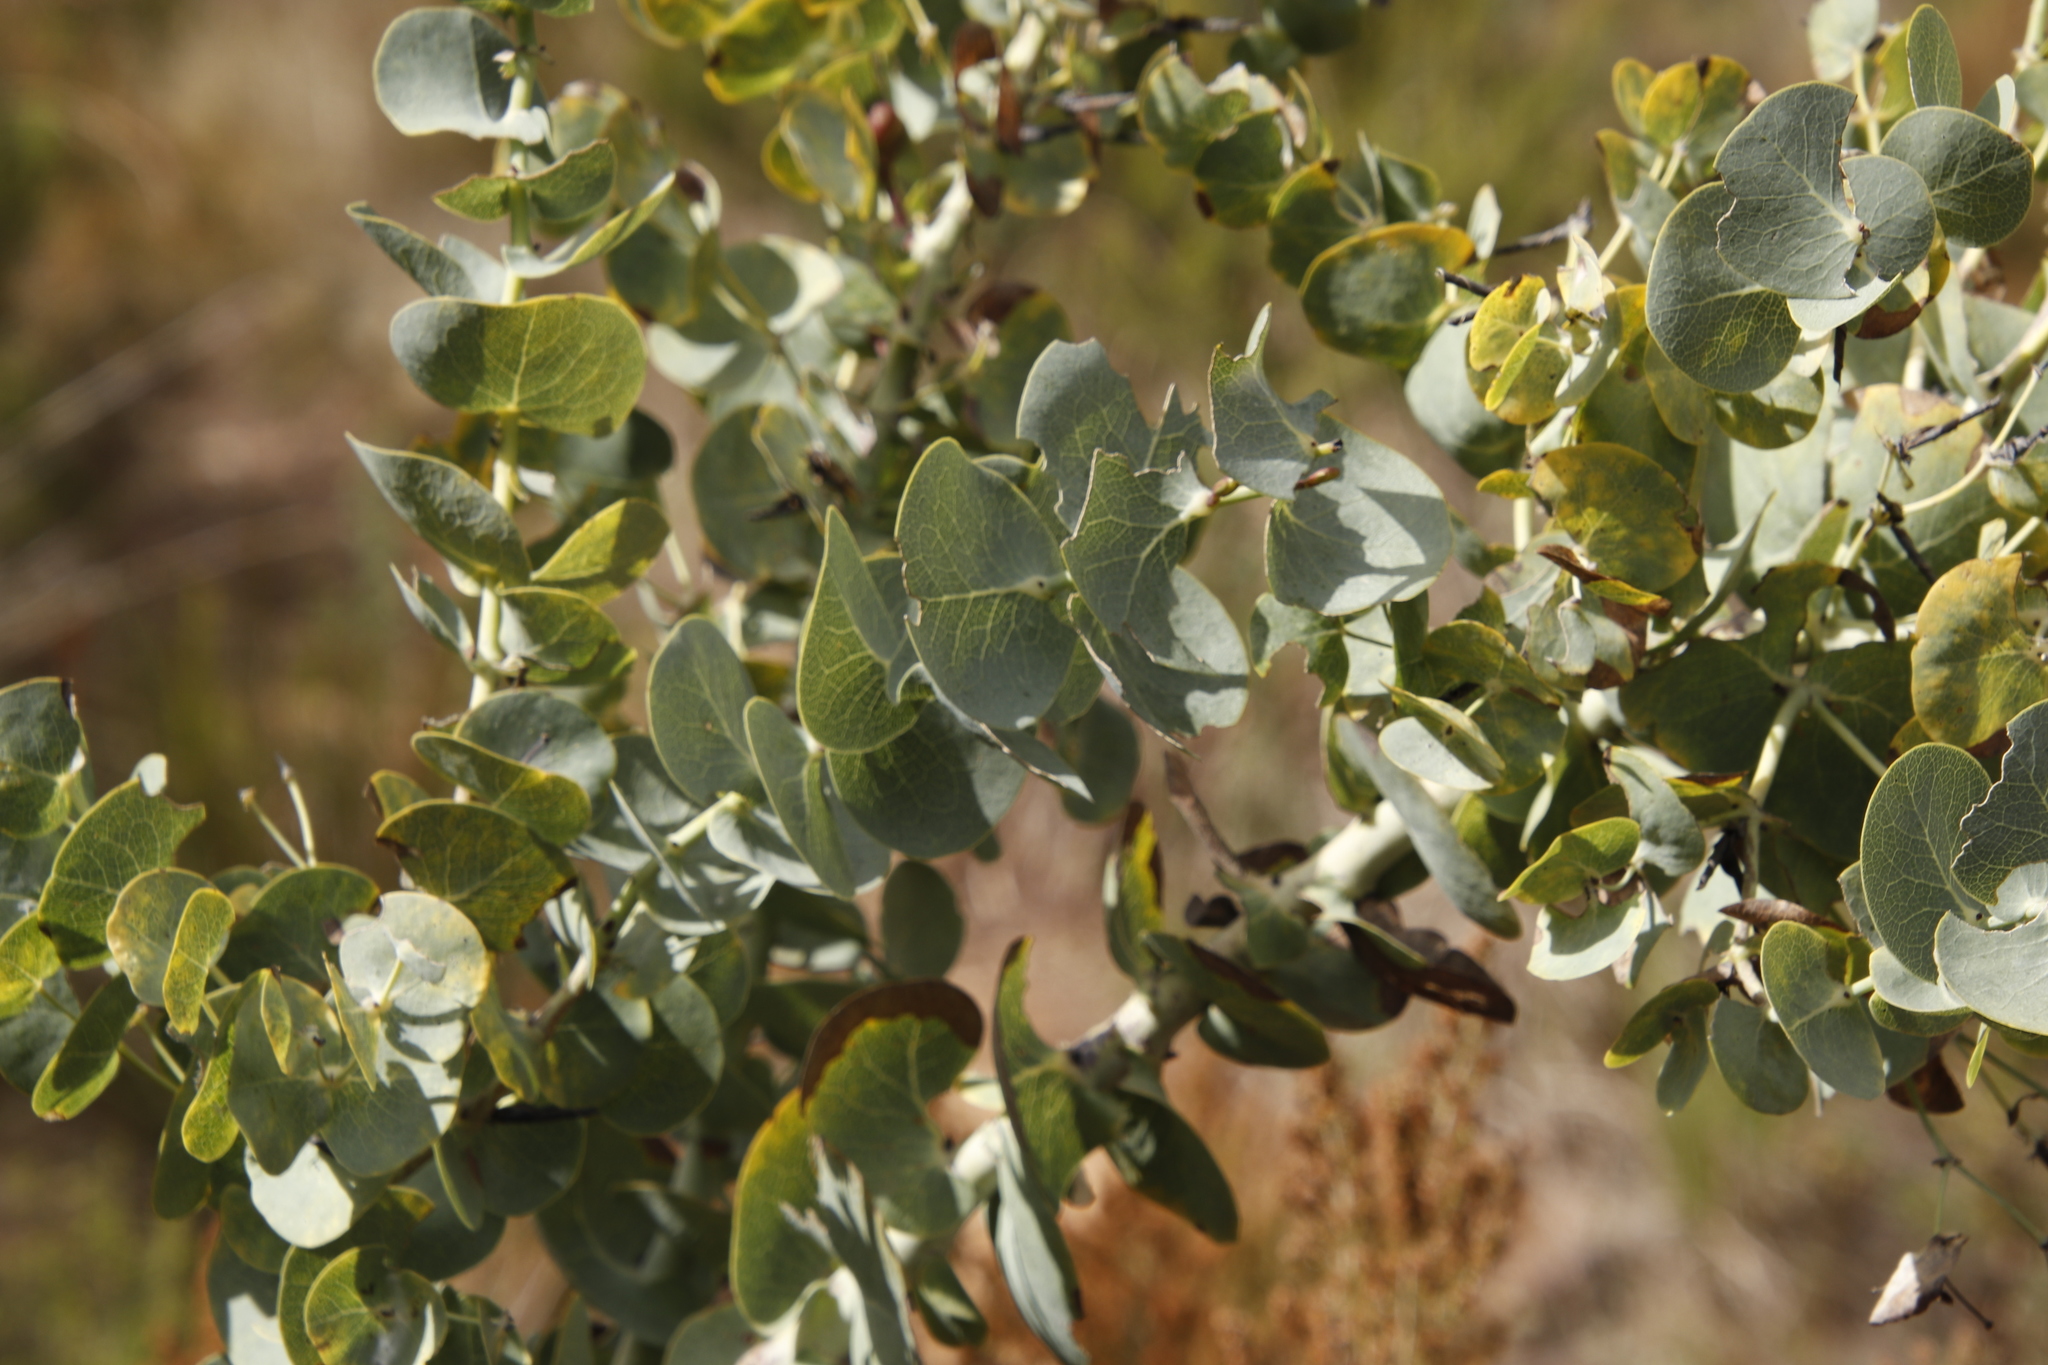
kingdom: Plantae
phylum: Tracheophyta
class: Magnoliopsida
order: Fabales
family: Fabaceae
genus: Rafnia
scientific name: Rafnia amplexicaulis
